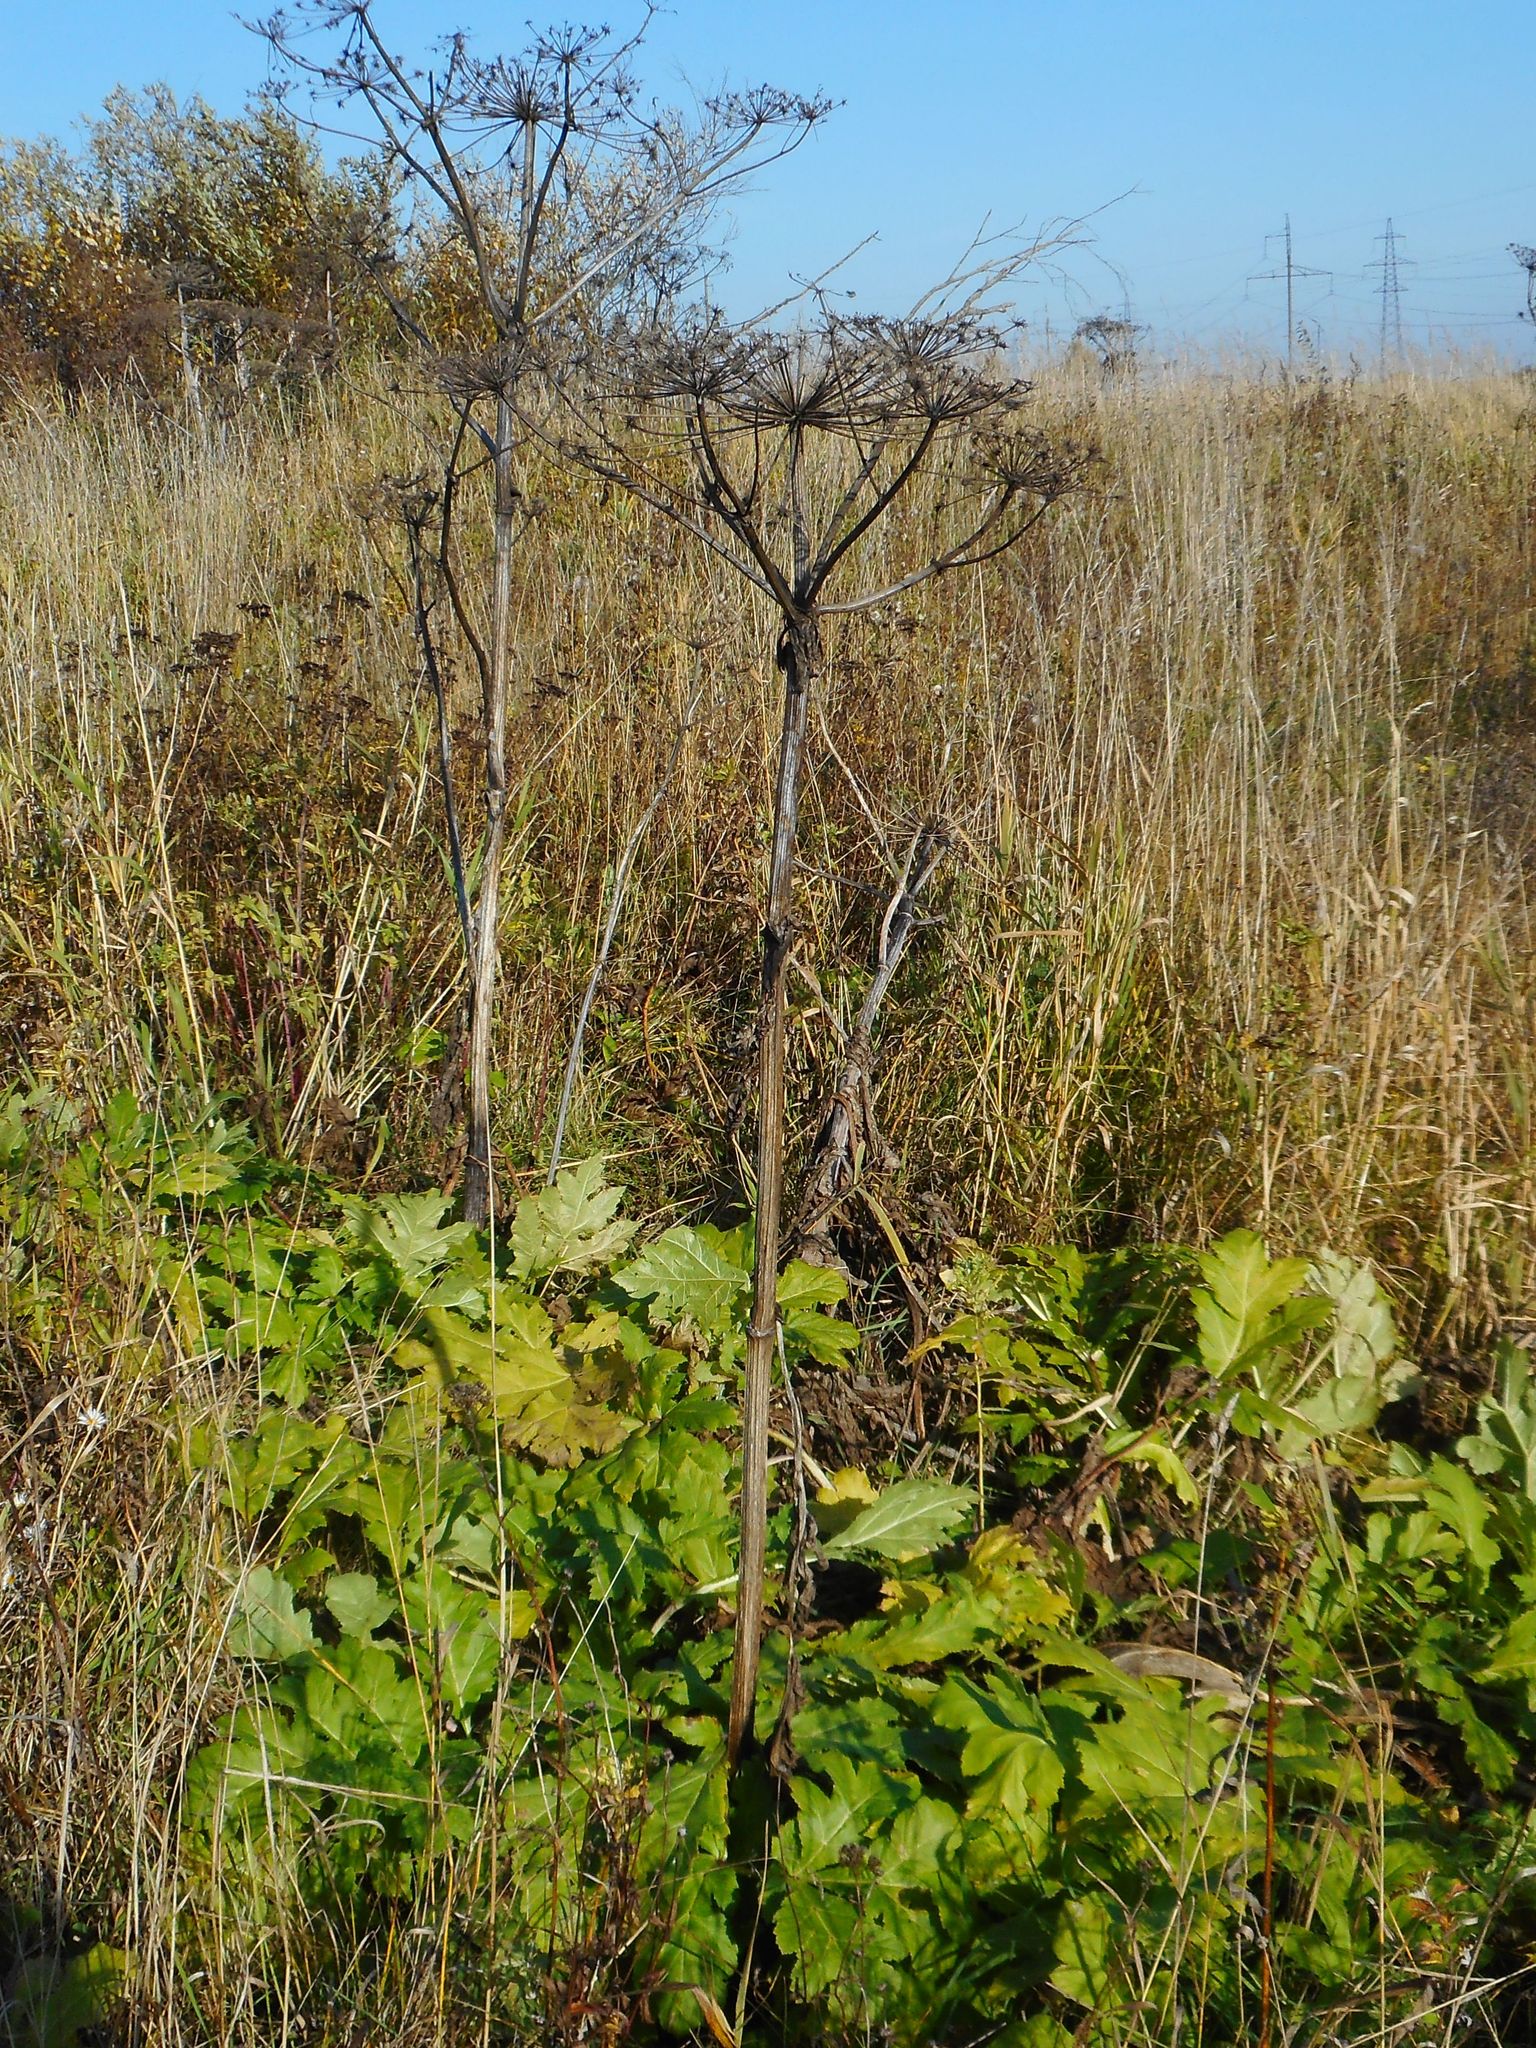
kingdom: Plantae
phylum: Tracheophyta
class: Magnoliopsida
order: Apiales
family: Apiaceae
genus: Heracleum
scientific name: Heracleum sosnowskyi
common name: Sosnowsky's hogweed
